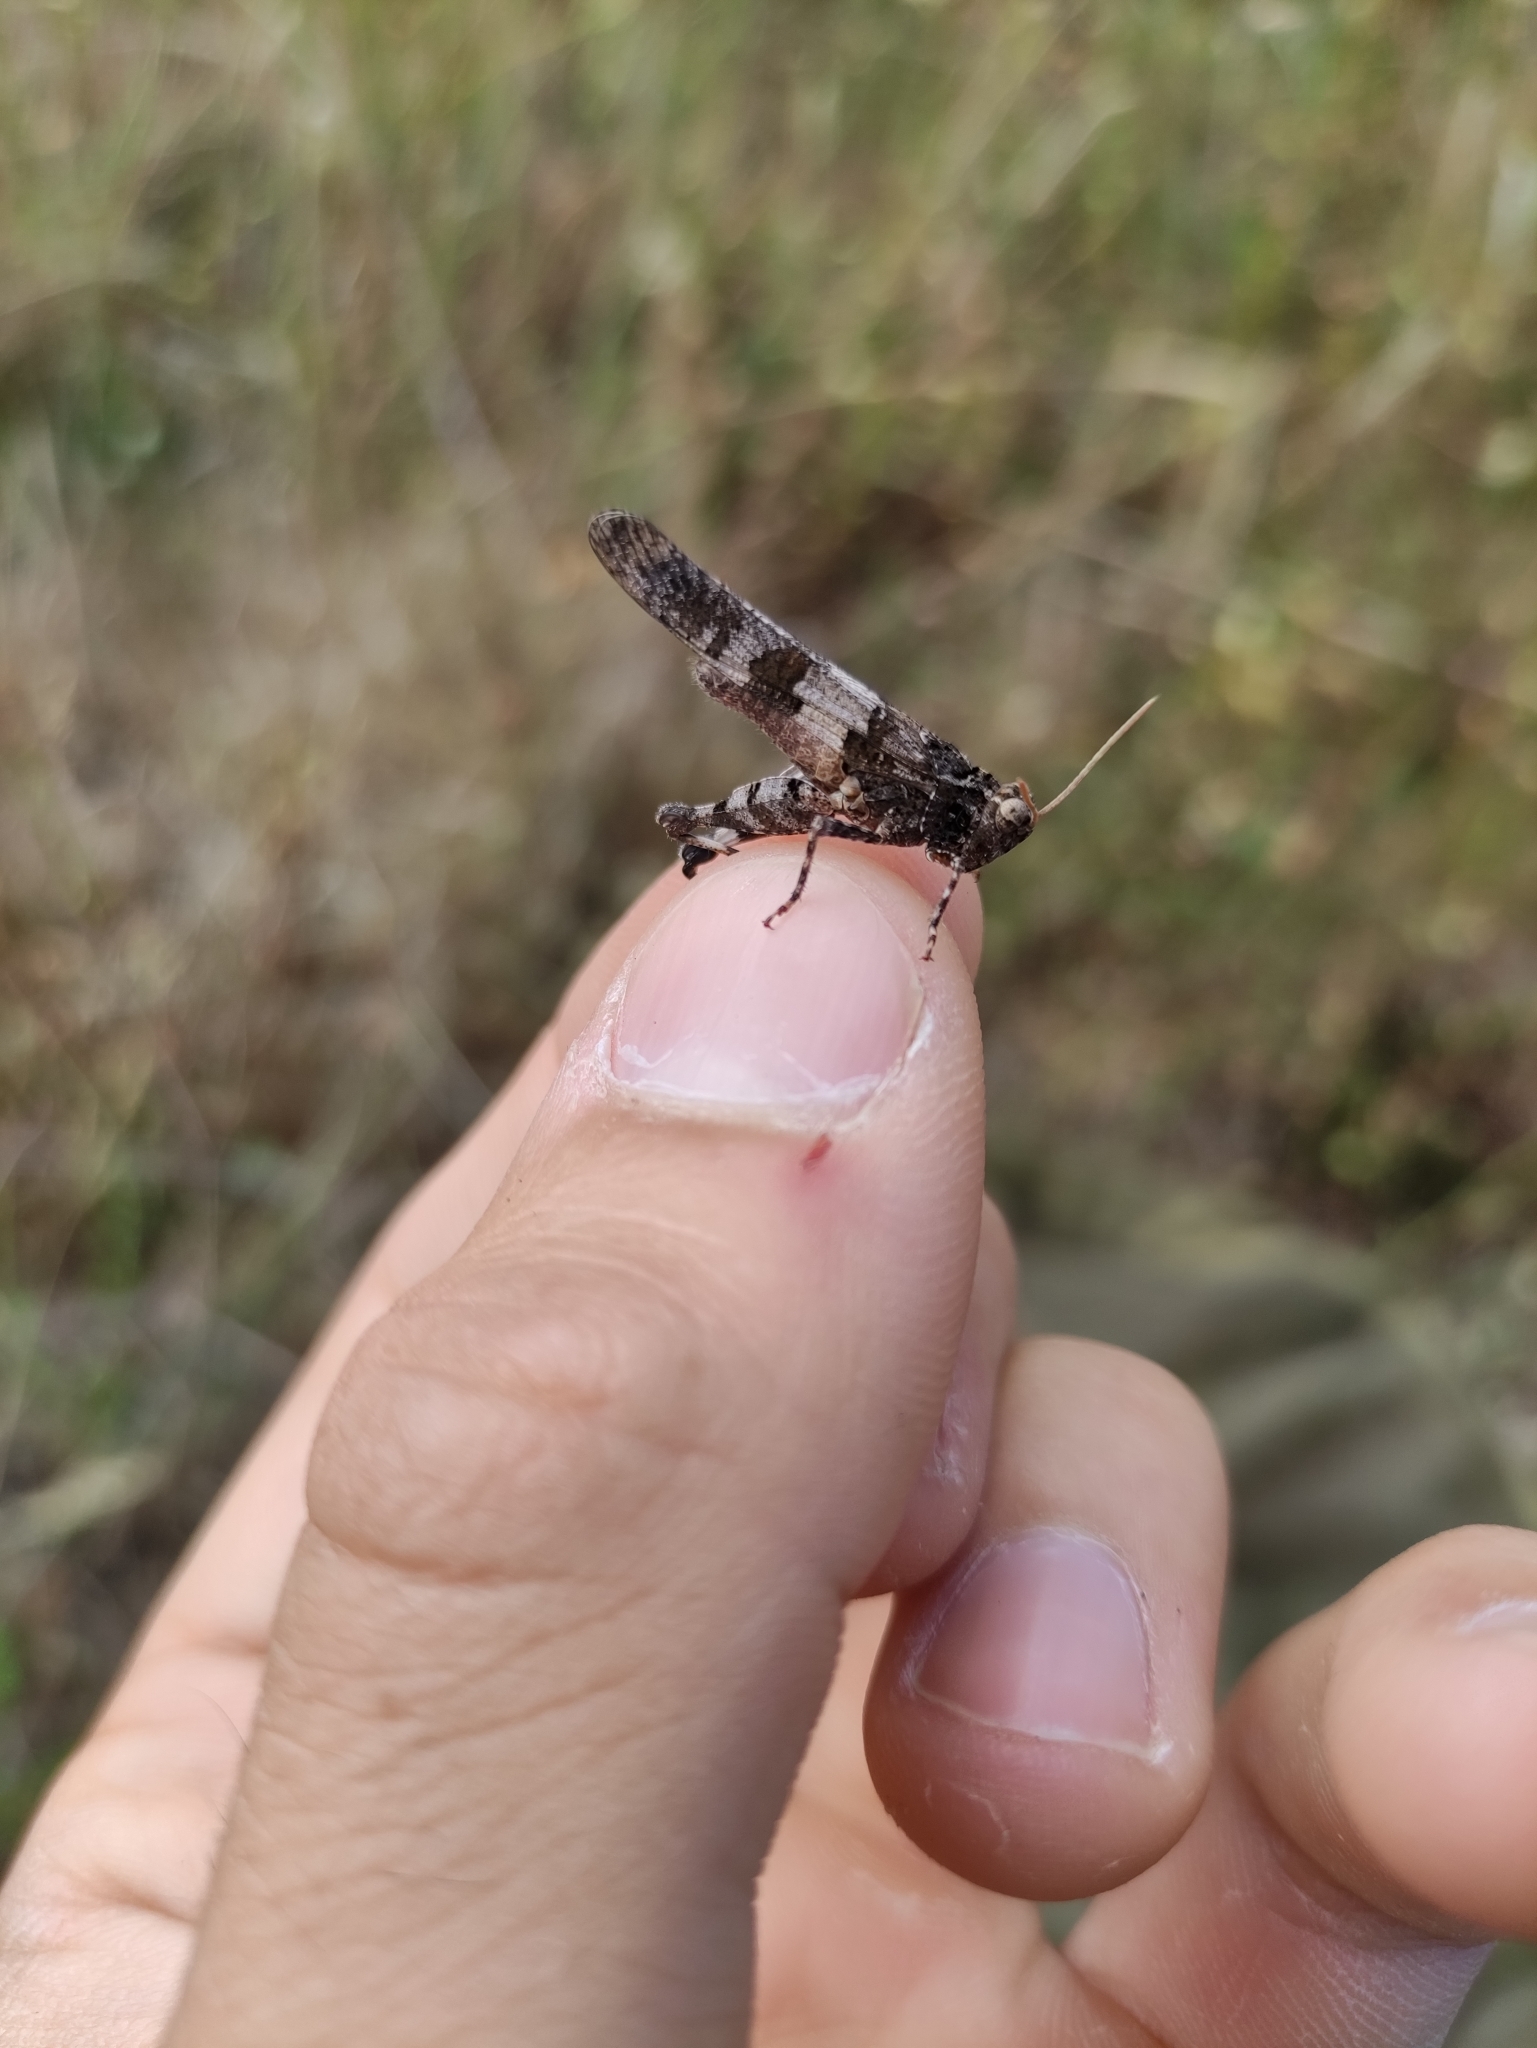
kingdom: Animalia
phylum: Arthropoda
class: Insecta
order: Orthoptera
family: Acrididae
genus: Oedipoda
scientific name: Oedipoda caerulescens
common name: Blue-winged grasshopper
